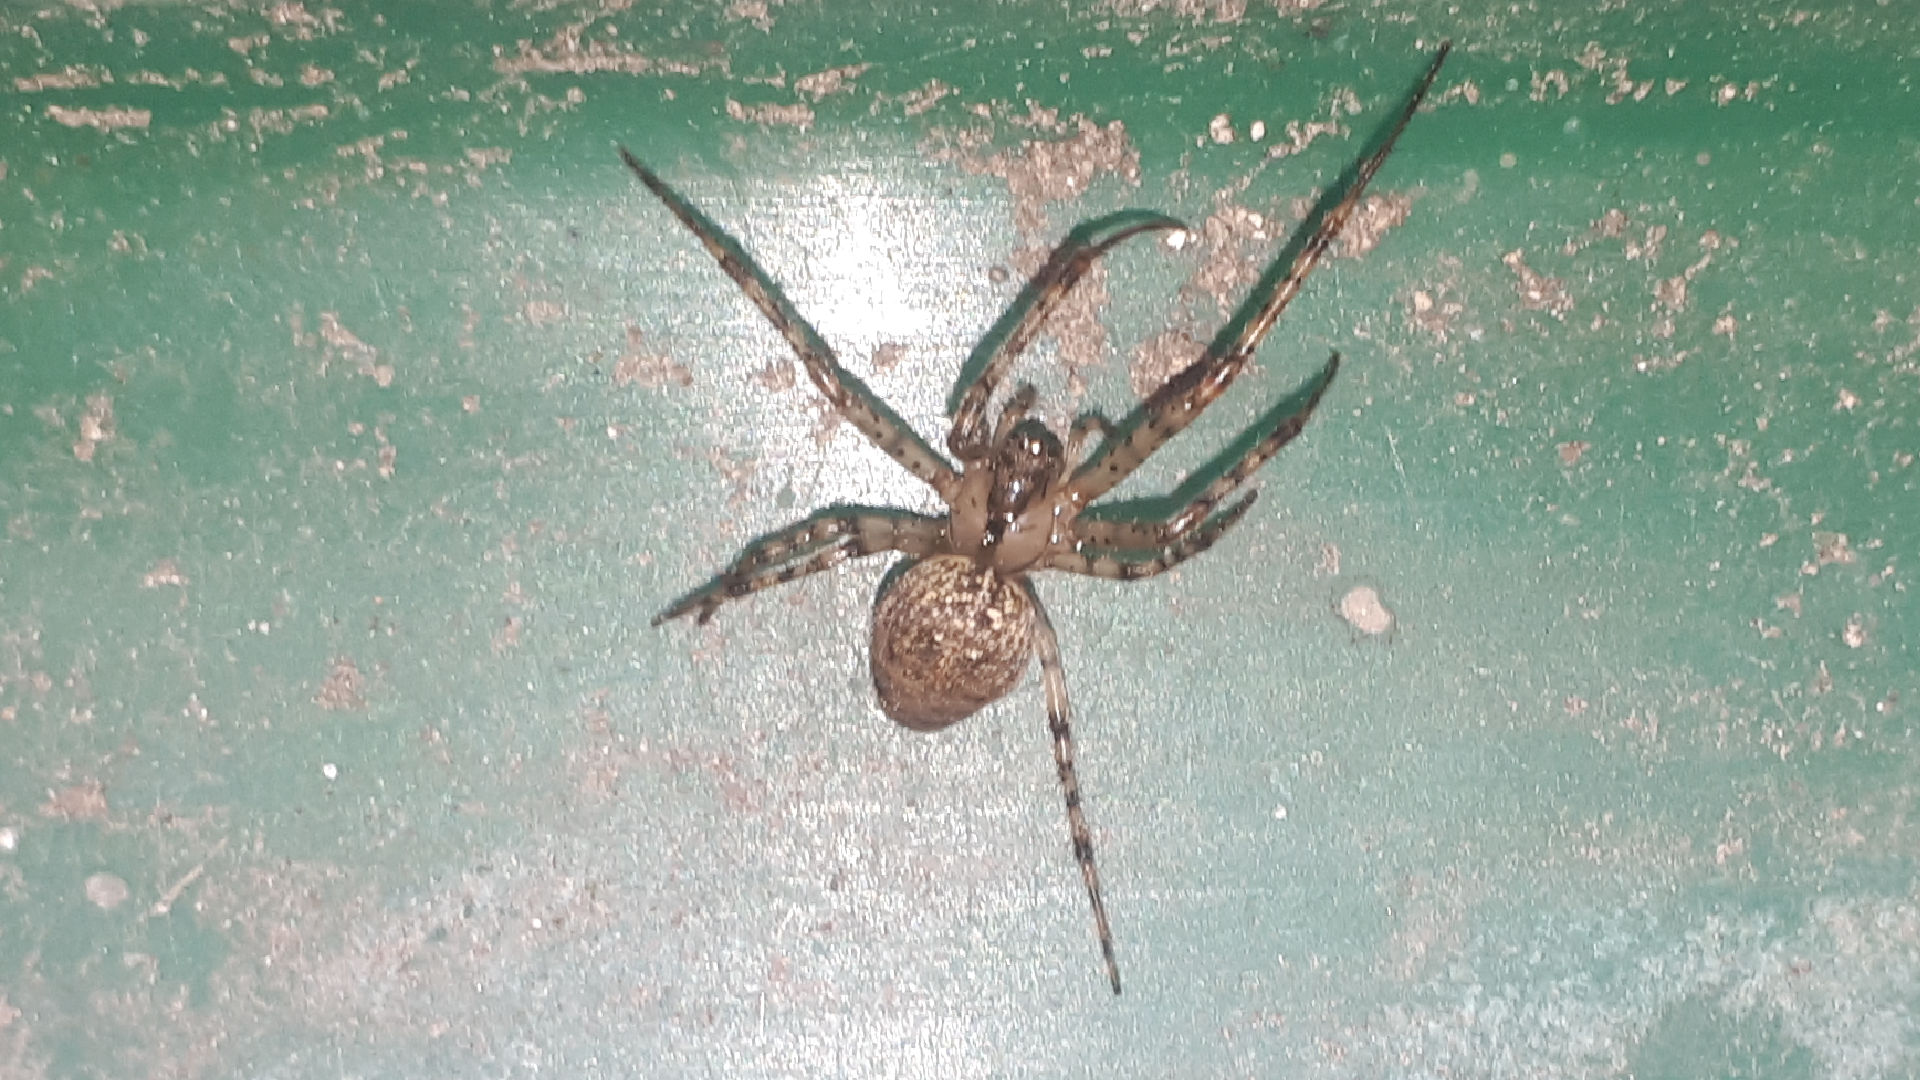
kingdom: Animalia
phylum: Arthropoda
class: Arachnida
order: Araneae
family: Tetragnathidae
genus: Metellina
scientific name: Metellina merianae
